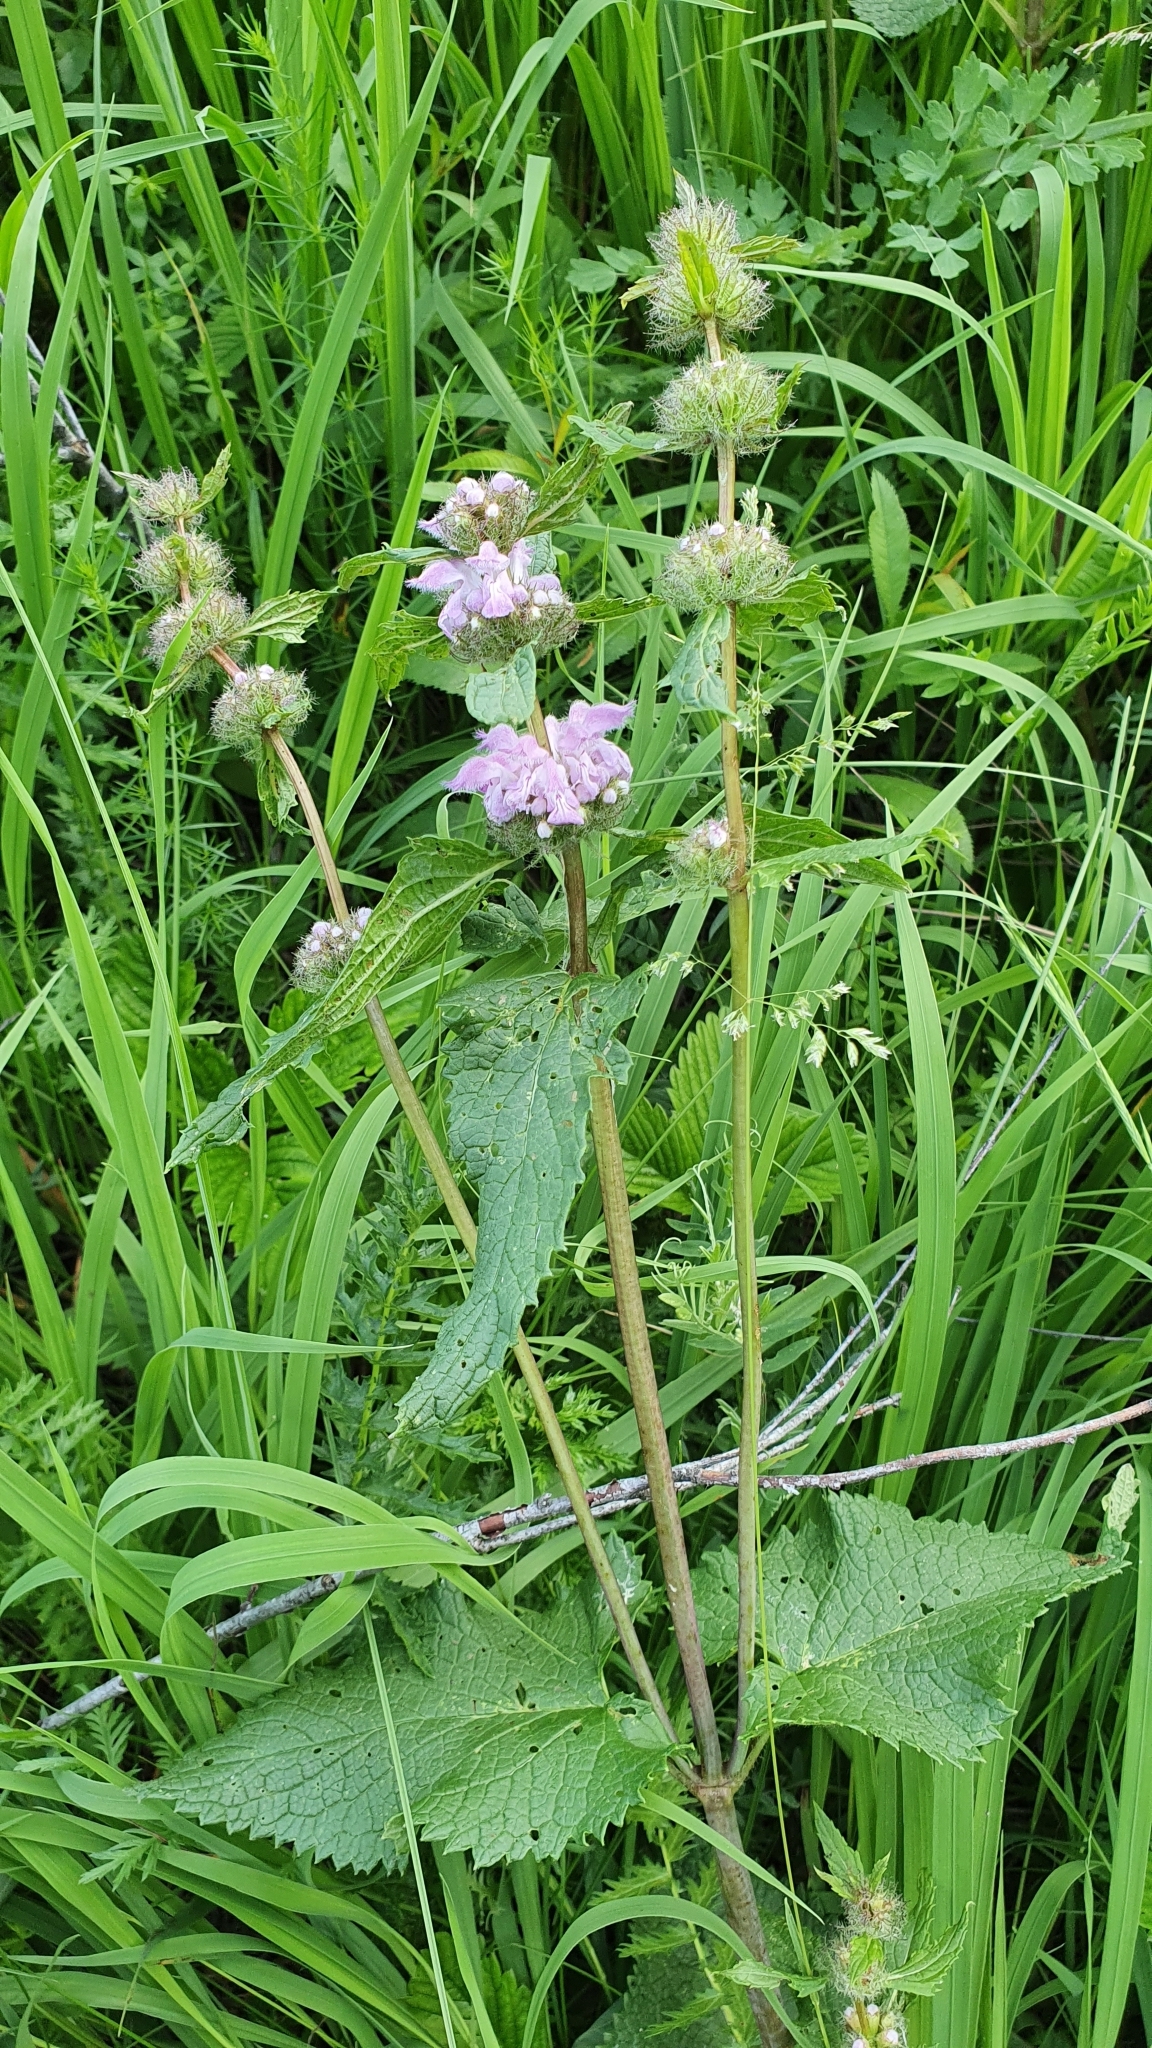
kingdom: Plantae
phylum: Tracheophyta
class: Magnoliopsida
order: Lamiales
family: Lamiaceae
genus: Phlomoides
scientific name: Phlomoides tuberosa
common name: Tuberous jerusalem sage
